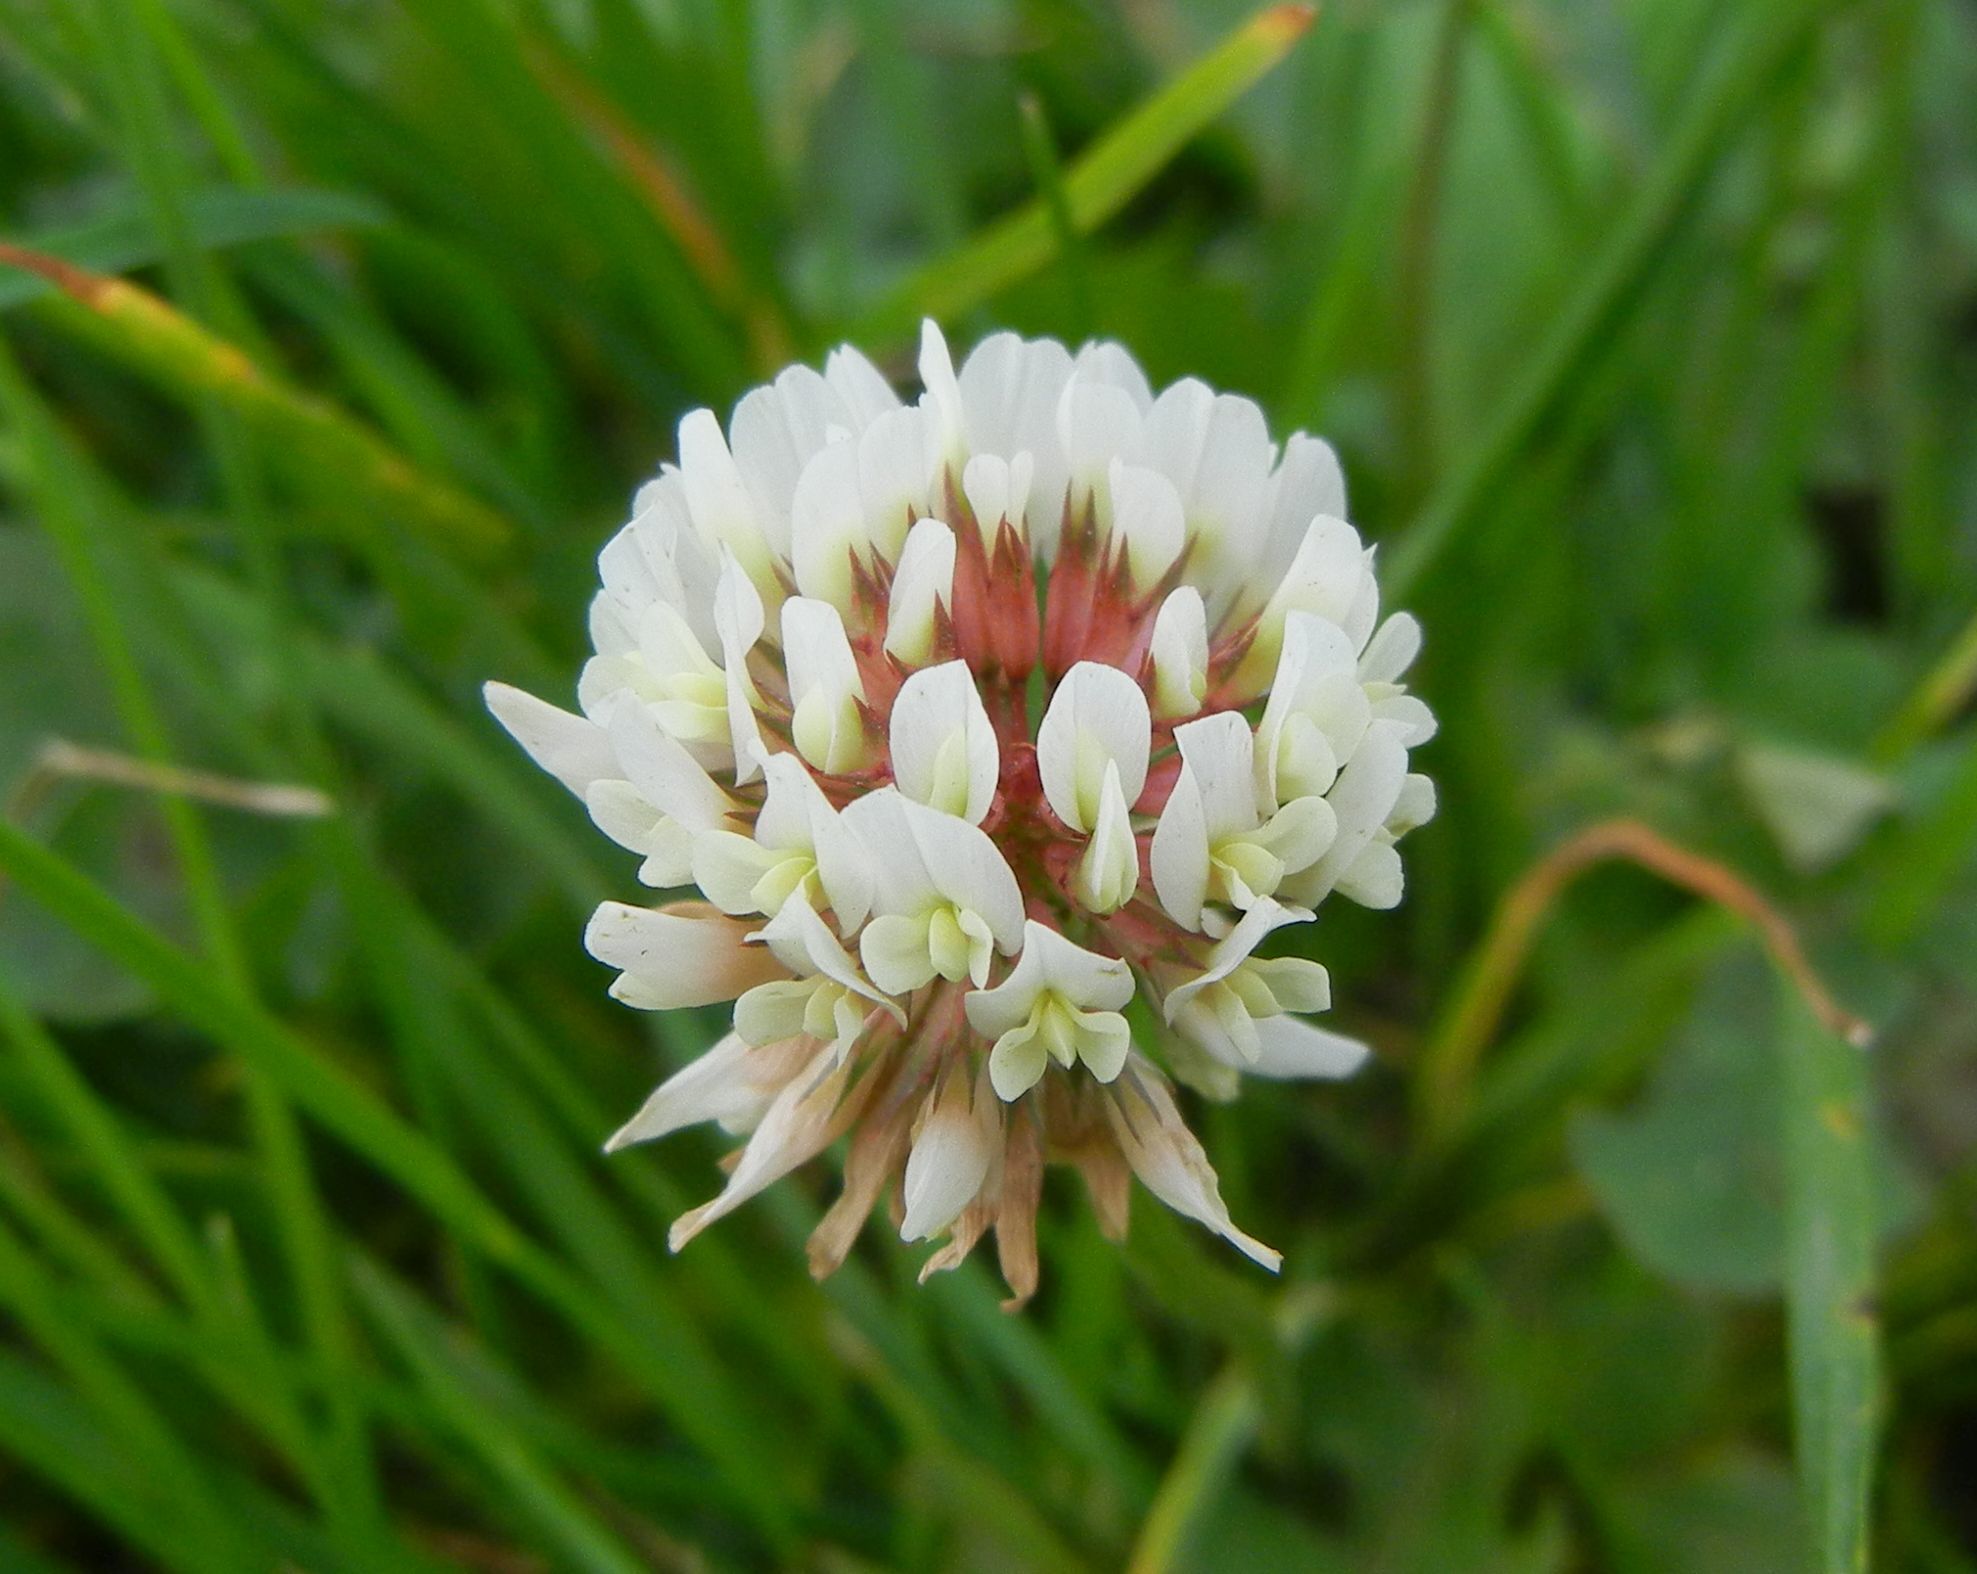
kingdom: Plantae
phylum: Tracheophyta
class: Magnoliopsida
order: Fabales
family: Fabaceae
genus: Trifolium
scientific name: Trifolium repens
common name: White clover
